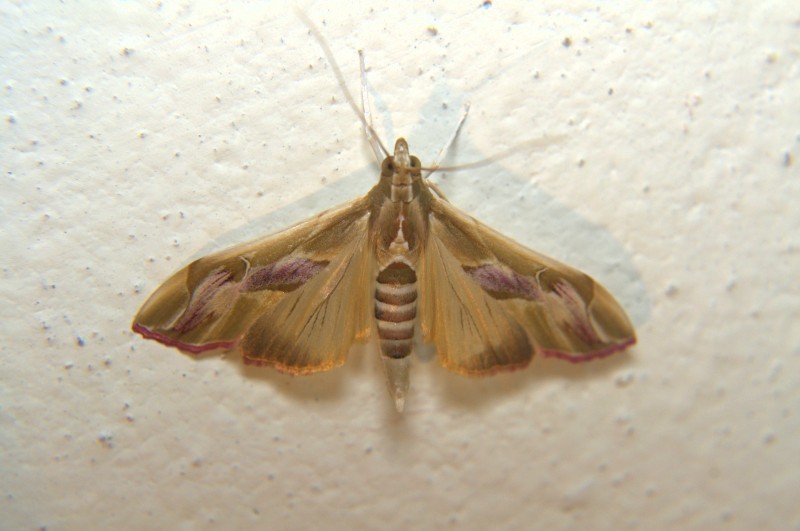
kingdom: Animalia
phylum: Arthropoda
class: Insecta
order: Lepidoptera
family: Crambidae
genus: Agathodes
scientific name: Agathodes ostentalis
